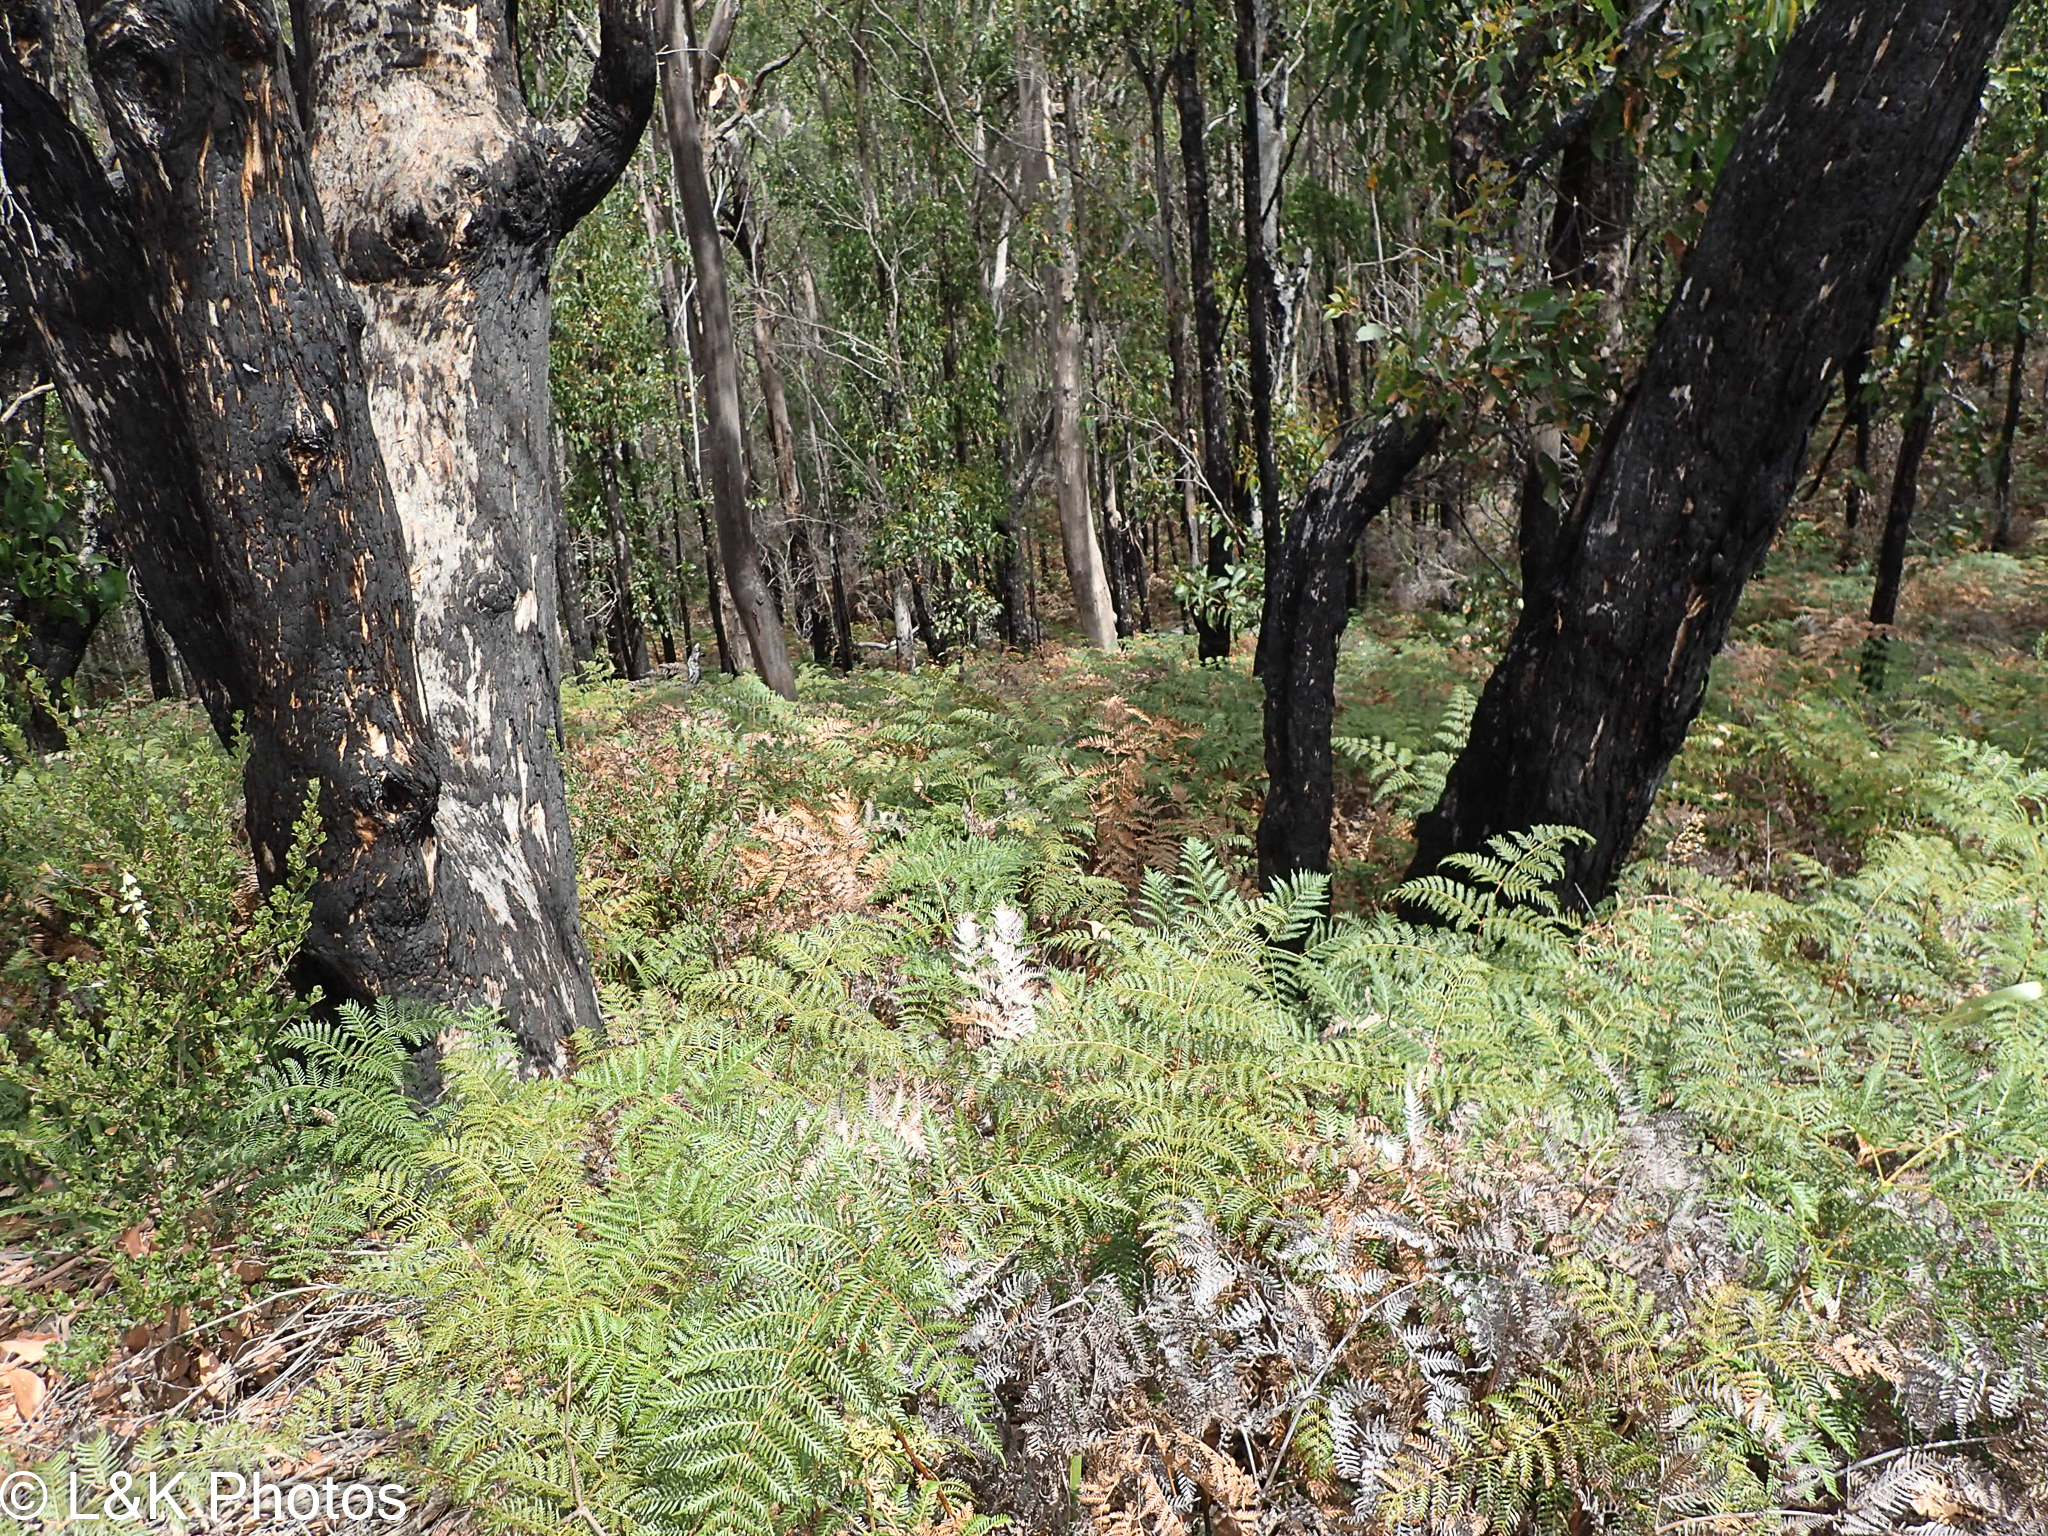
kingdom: Plantae
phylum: Tracheophyta
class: Polypodiopsida
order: Polypodiales
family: Dennstaedtiaceae
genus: Pteridium
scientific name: Pteridium esculentum
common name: Bracken fern
